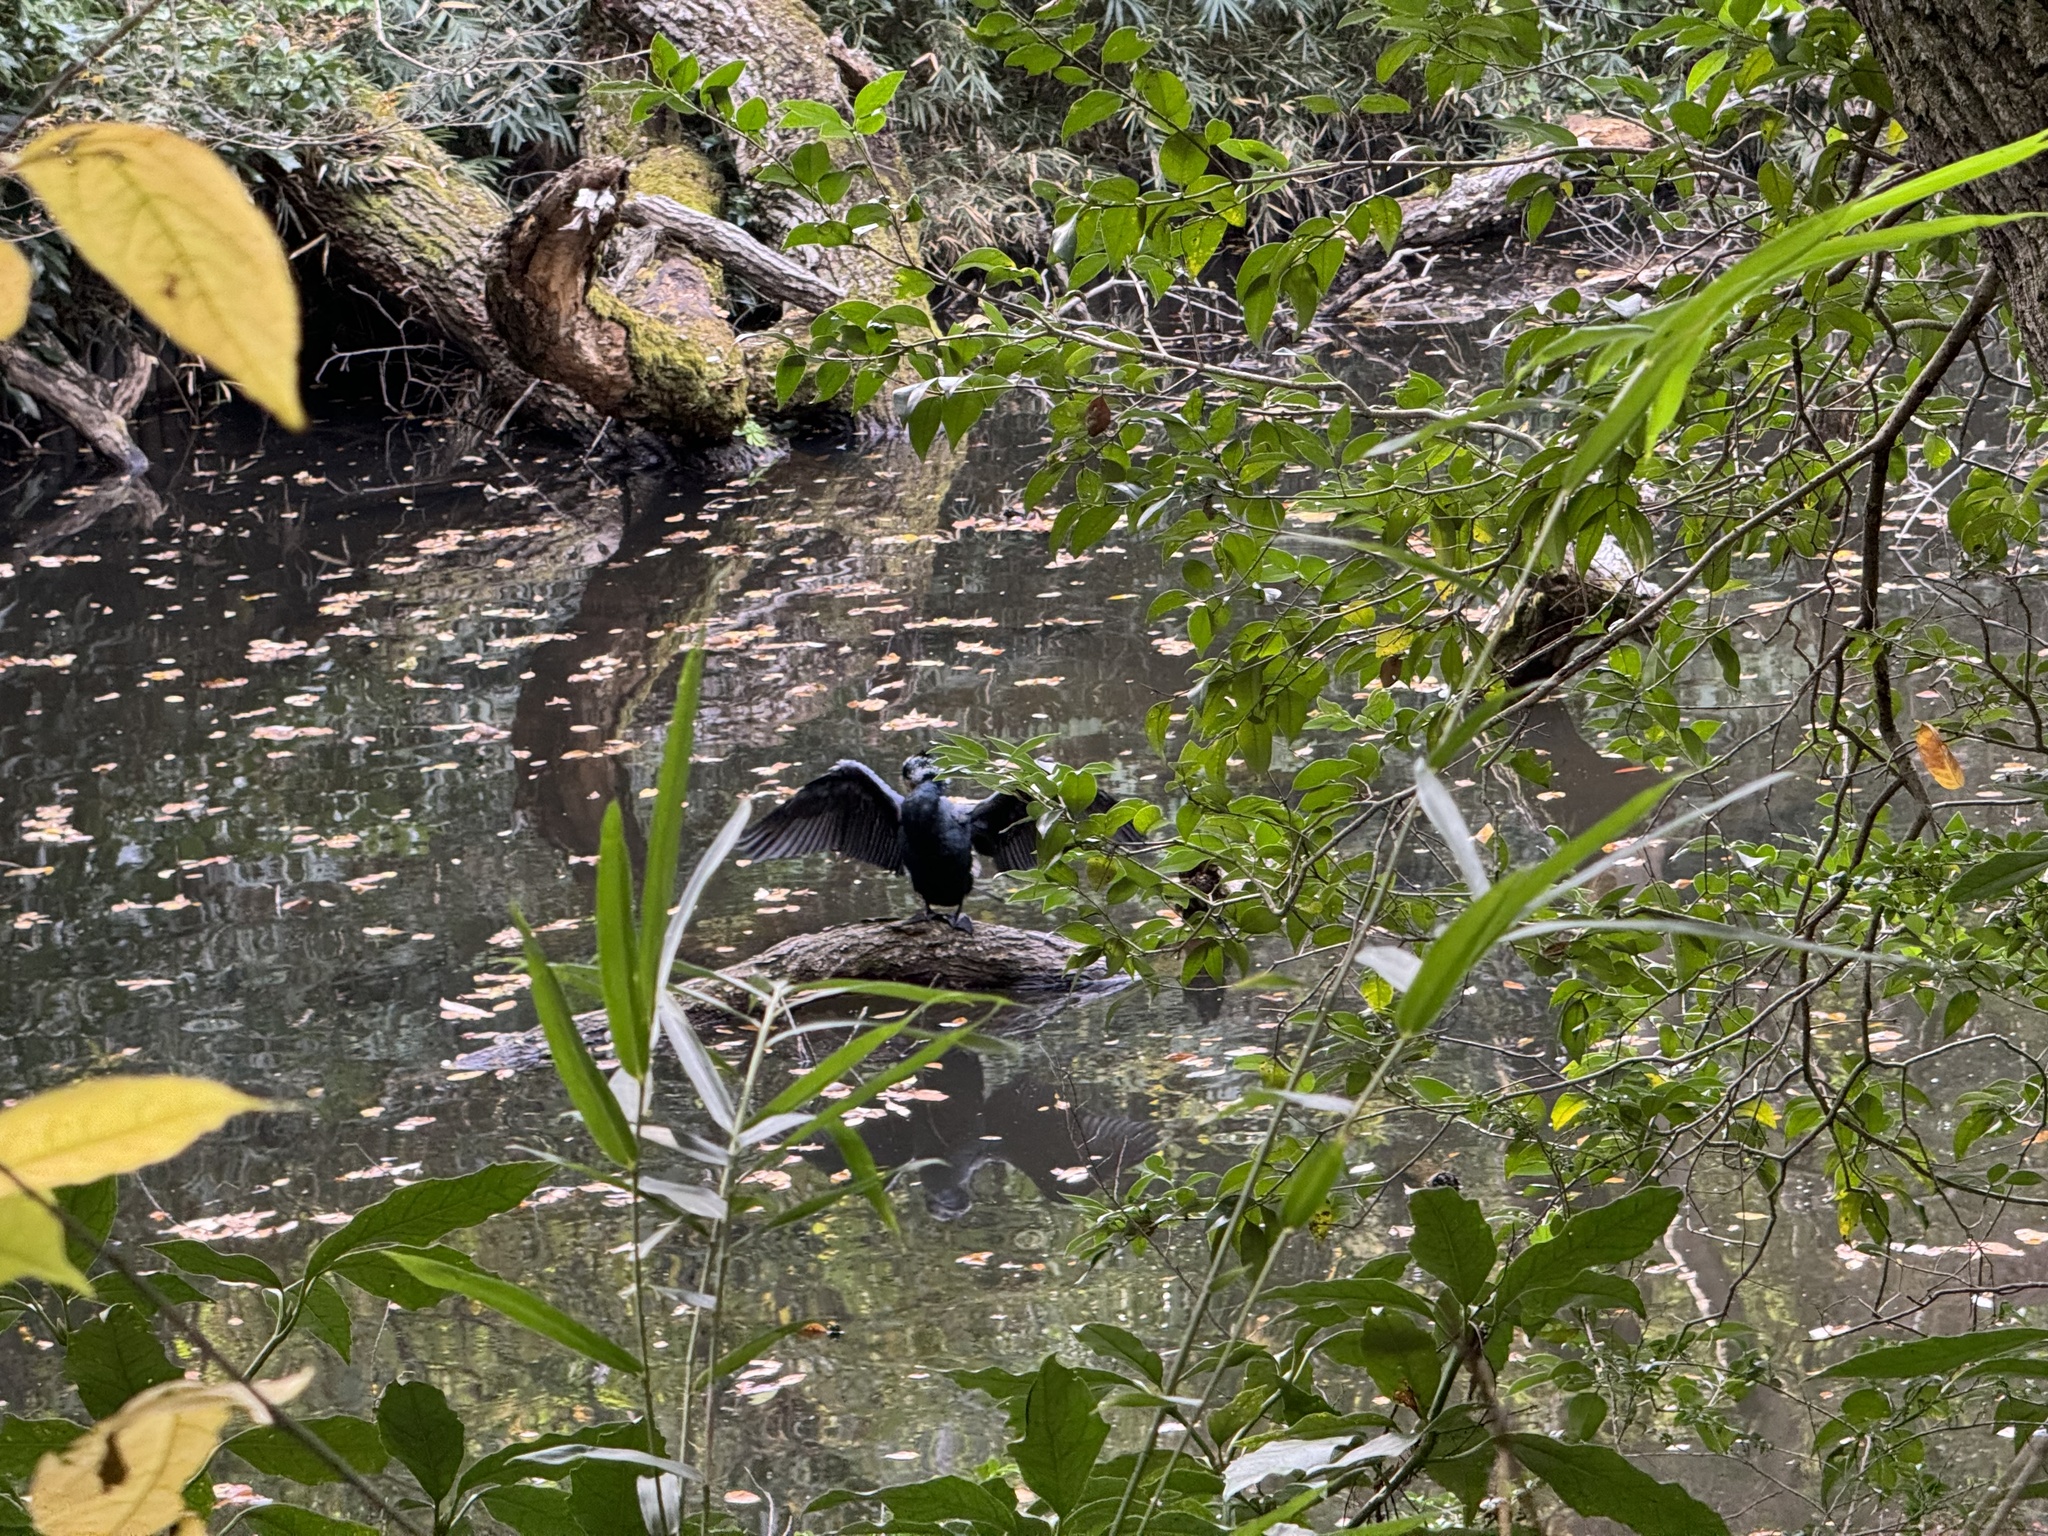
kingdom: Animalia
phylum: Chordata
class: Aves
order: Suliformes
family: Phalacrocoracidae
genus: Phalacrocorax
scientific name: Phalacrocorax carbo
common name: Great cormorant
